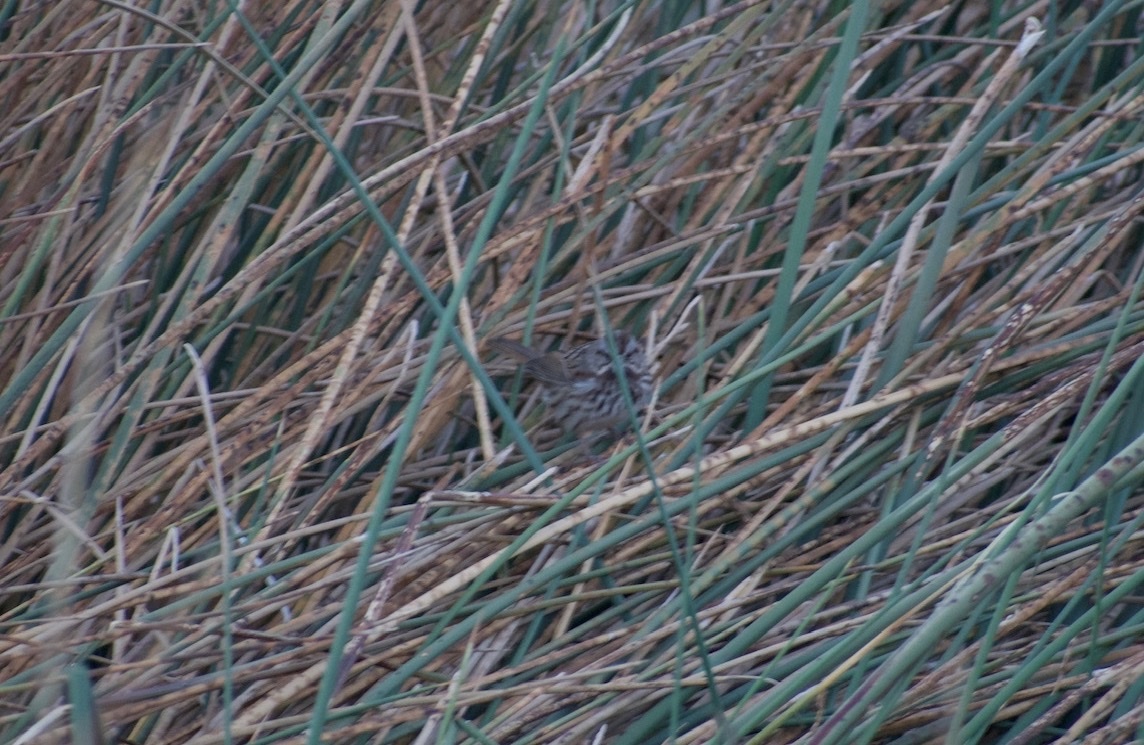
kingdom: Animalia
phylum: Chordata
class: Aves
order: Passeriformes
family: Passerellidae
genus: Melospiza
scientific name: Melospiza melodia
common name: Song sparrow
